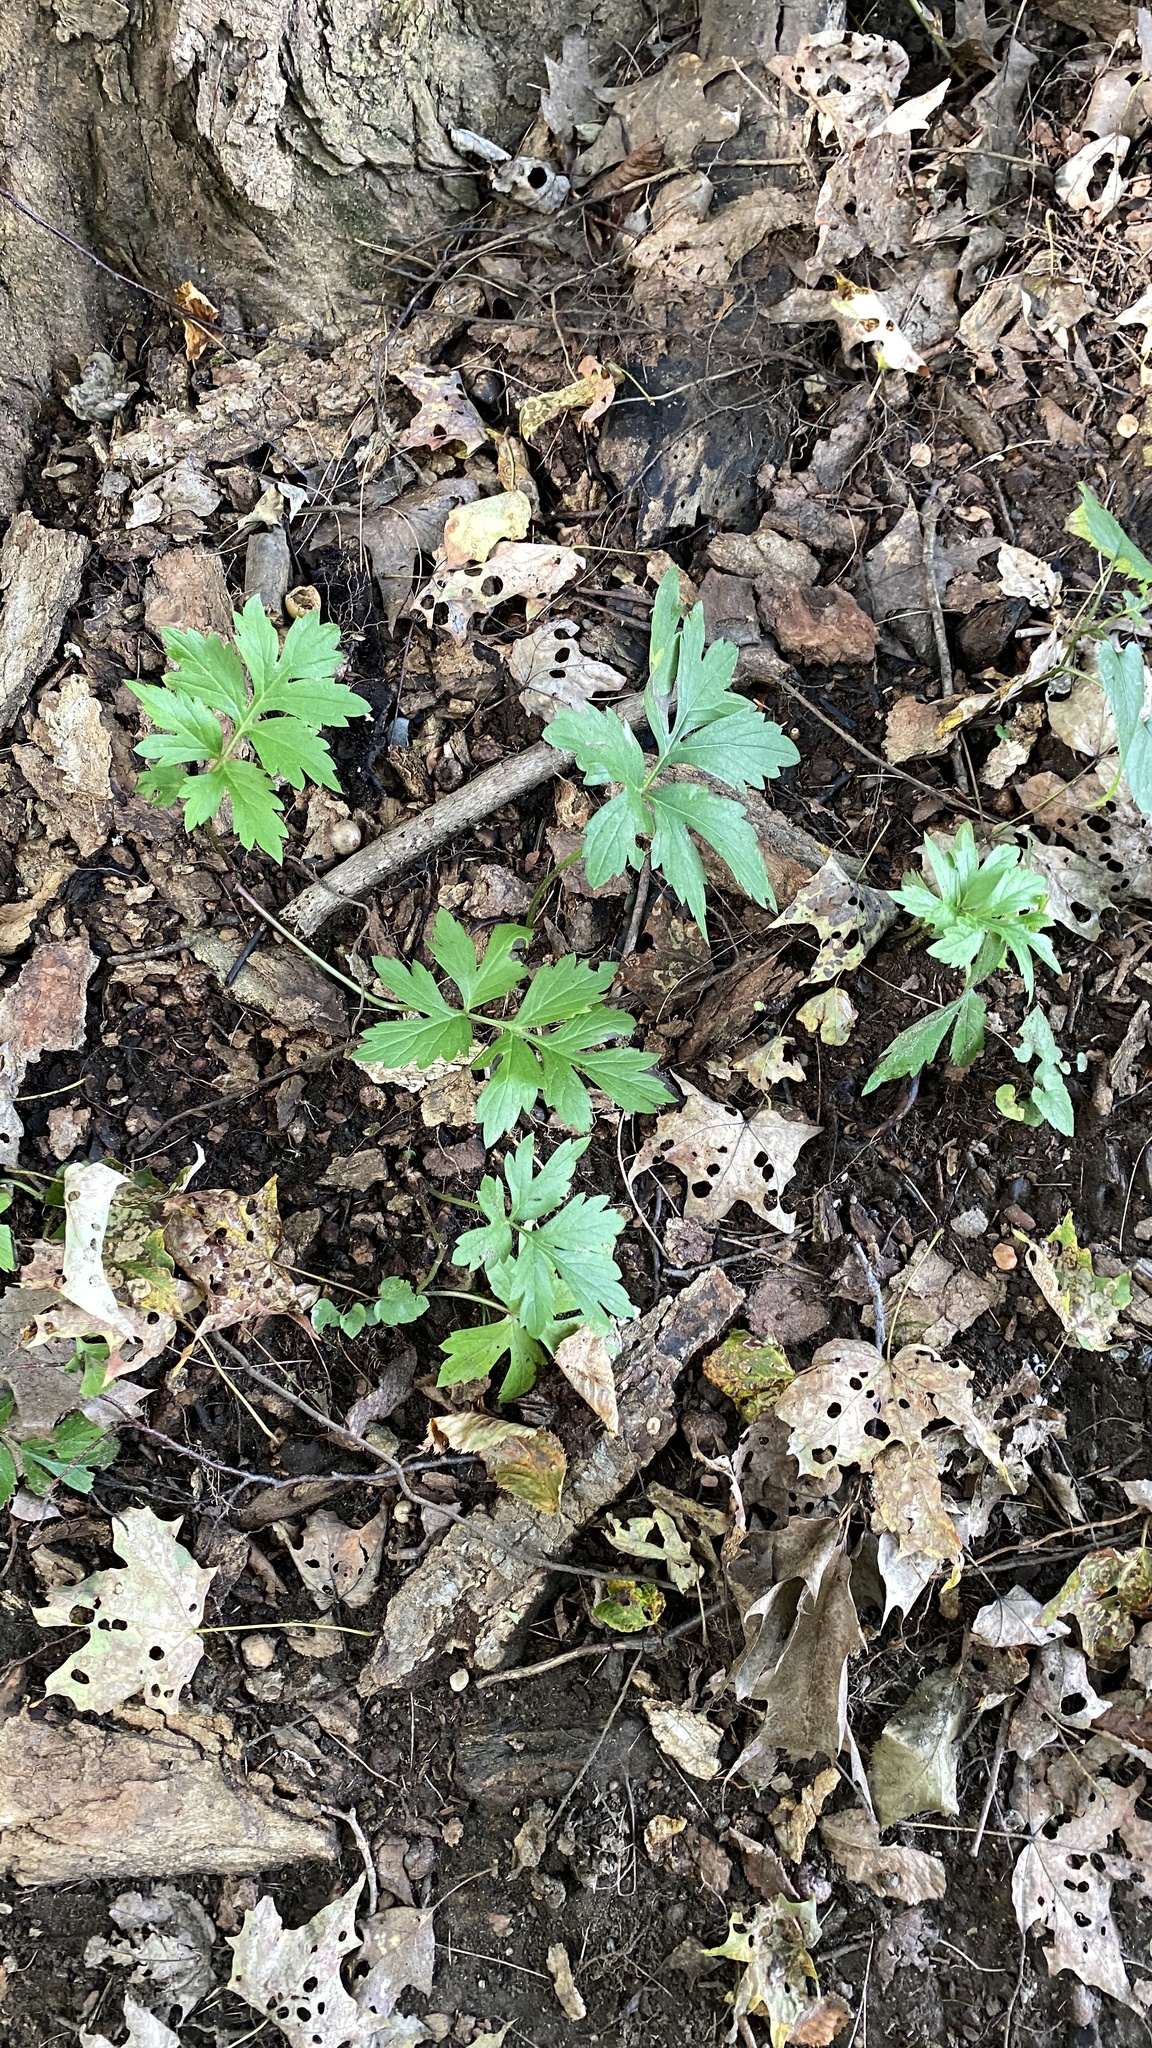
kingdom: Plantae
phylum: Tracheophyta
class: Magnoliopsida
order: Boraginales
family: Hydrophyllaceae
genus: Hydrophyllum
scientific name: Hydrophyllum virginianum
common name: Virginia waterleaf
